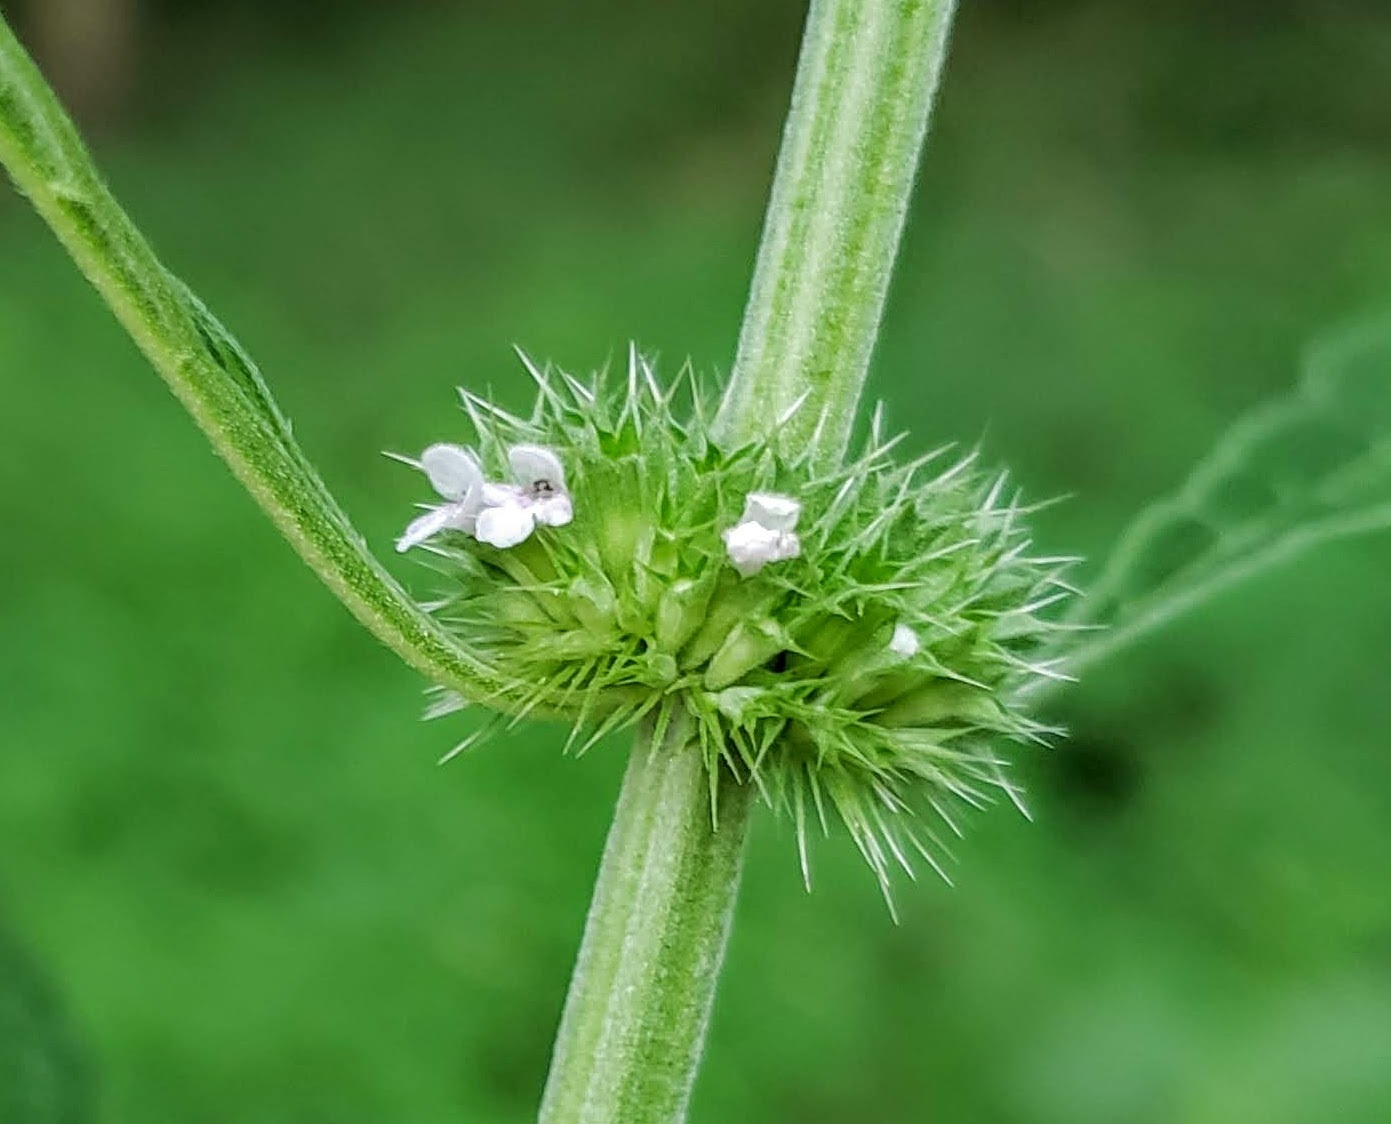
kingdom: Plantae
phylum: Tracheophyta
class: Magnoliopsida
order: Lamiales
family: Lamiaceae
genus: Chaiturus
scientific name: Chaiturus marrubiastrum
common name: Lion's tail
